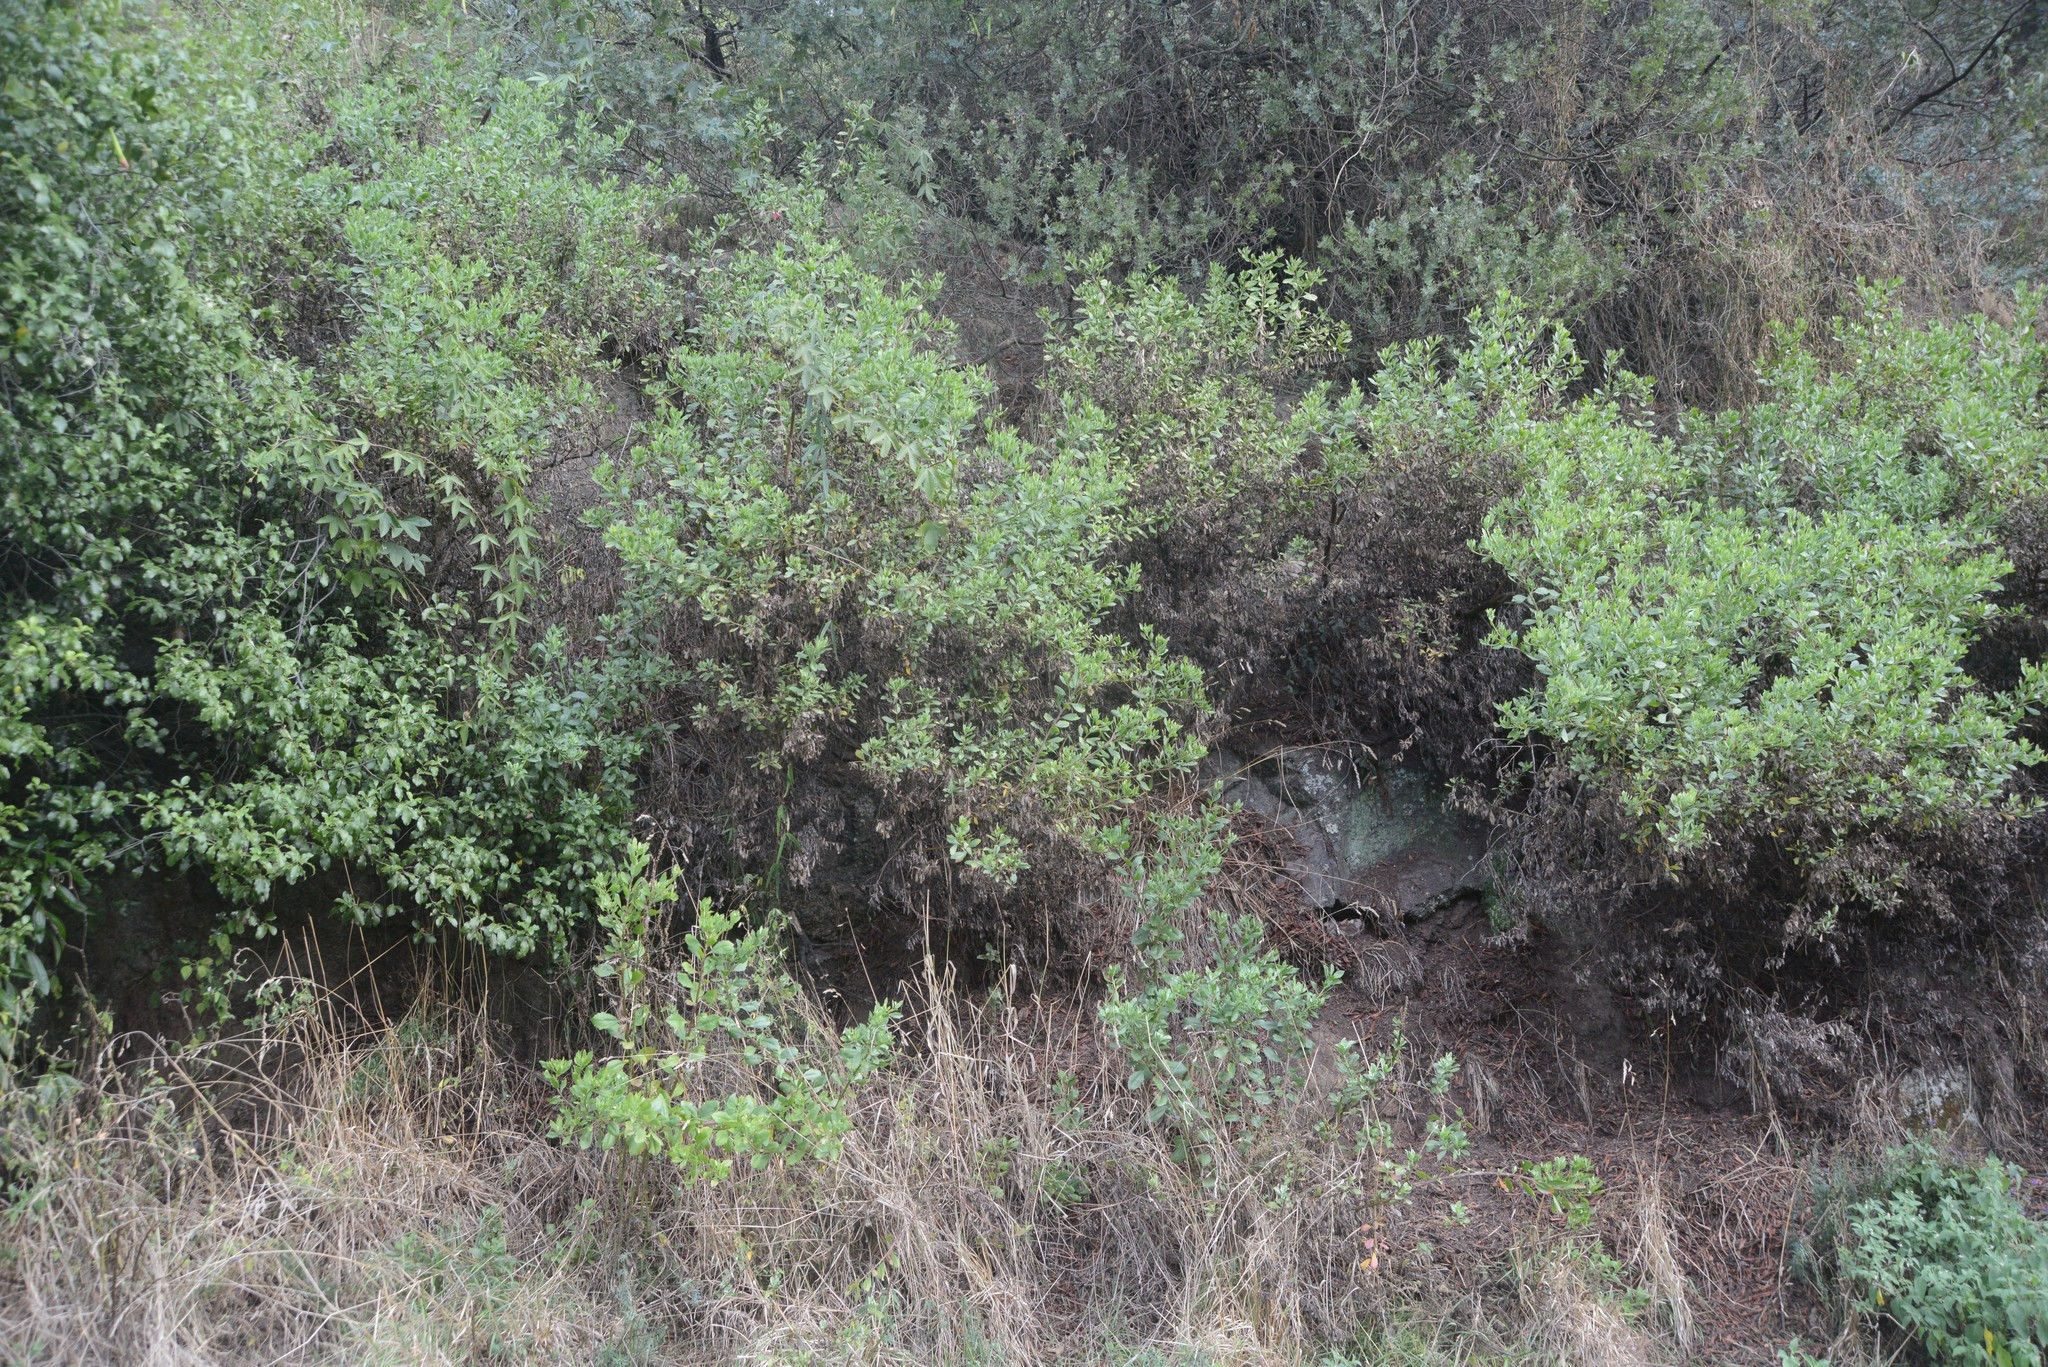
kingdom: Plantae
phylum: Tracheophyta
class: Magnoliopsida
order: Asterales
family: Asteraceae
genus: Osteospermum
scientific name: Osteospermum moniliferum
